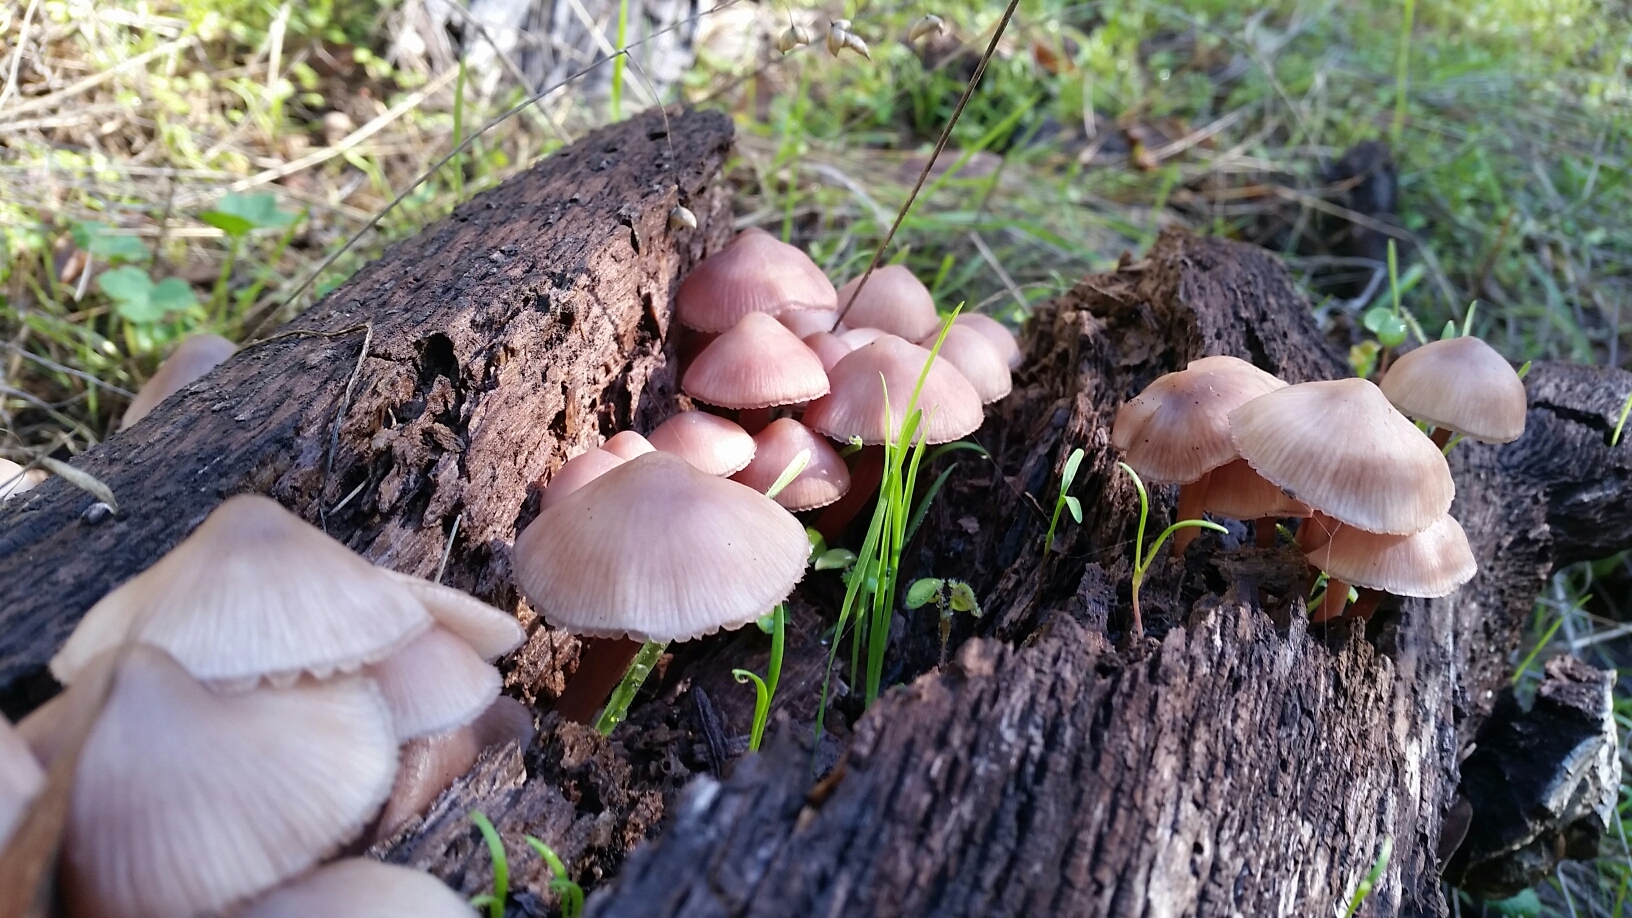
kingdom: Fungi
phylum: Basidiomycota
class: Agaricomycetes
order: Agaricales
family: Mycenaceae
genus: Mycena
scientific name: Mycena haematopus
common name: Burgundydrop bonnet
